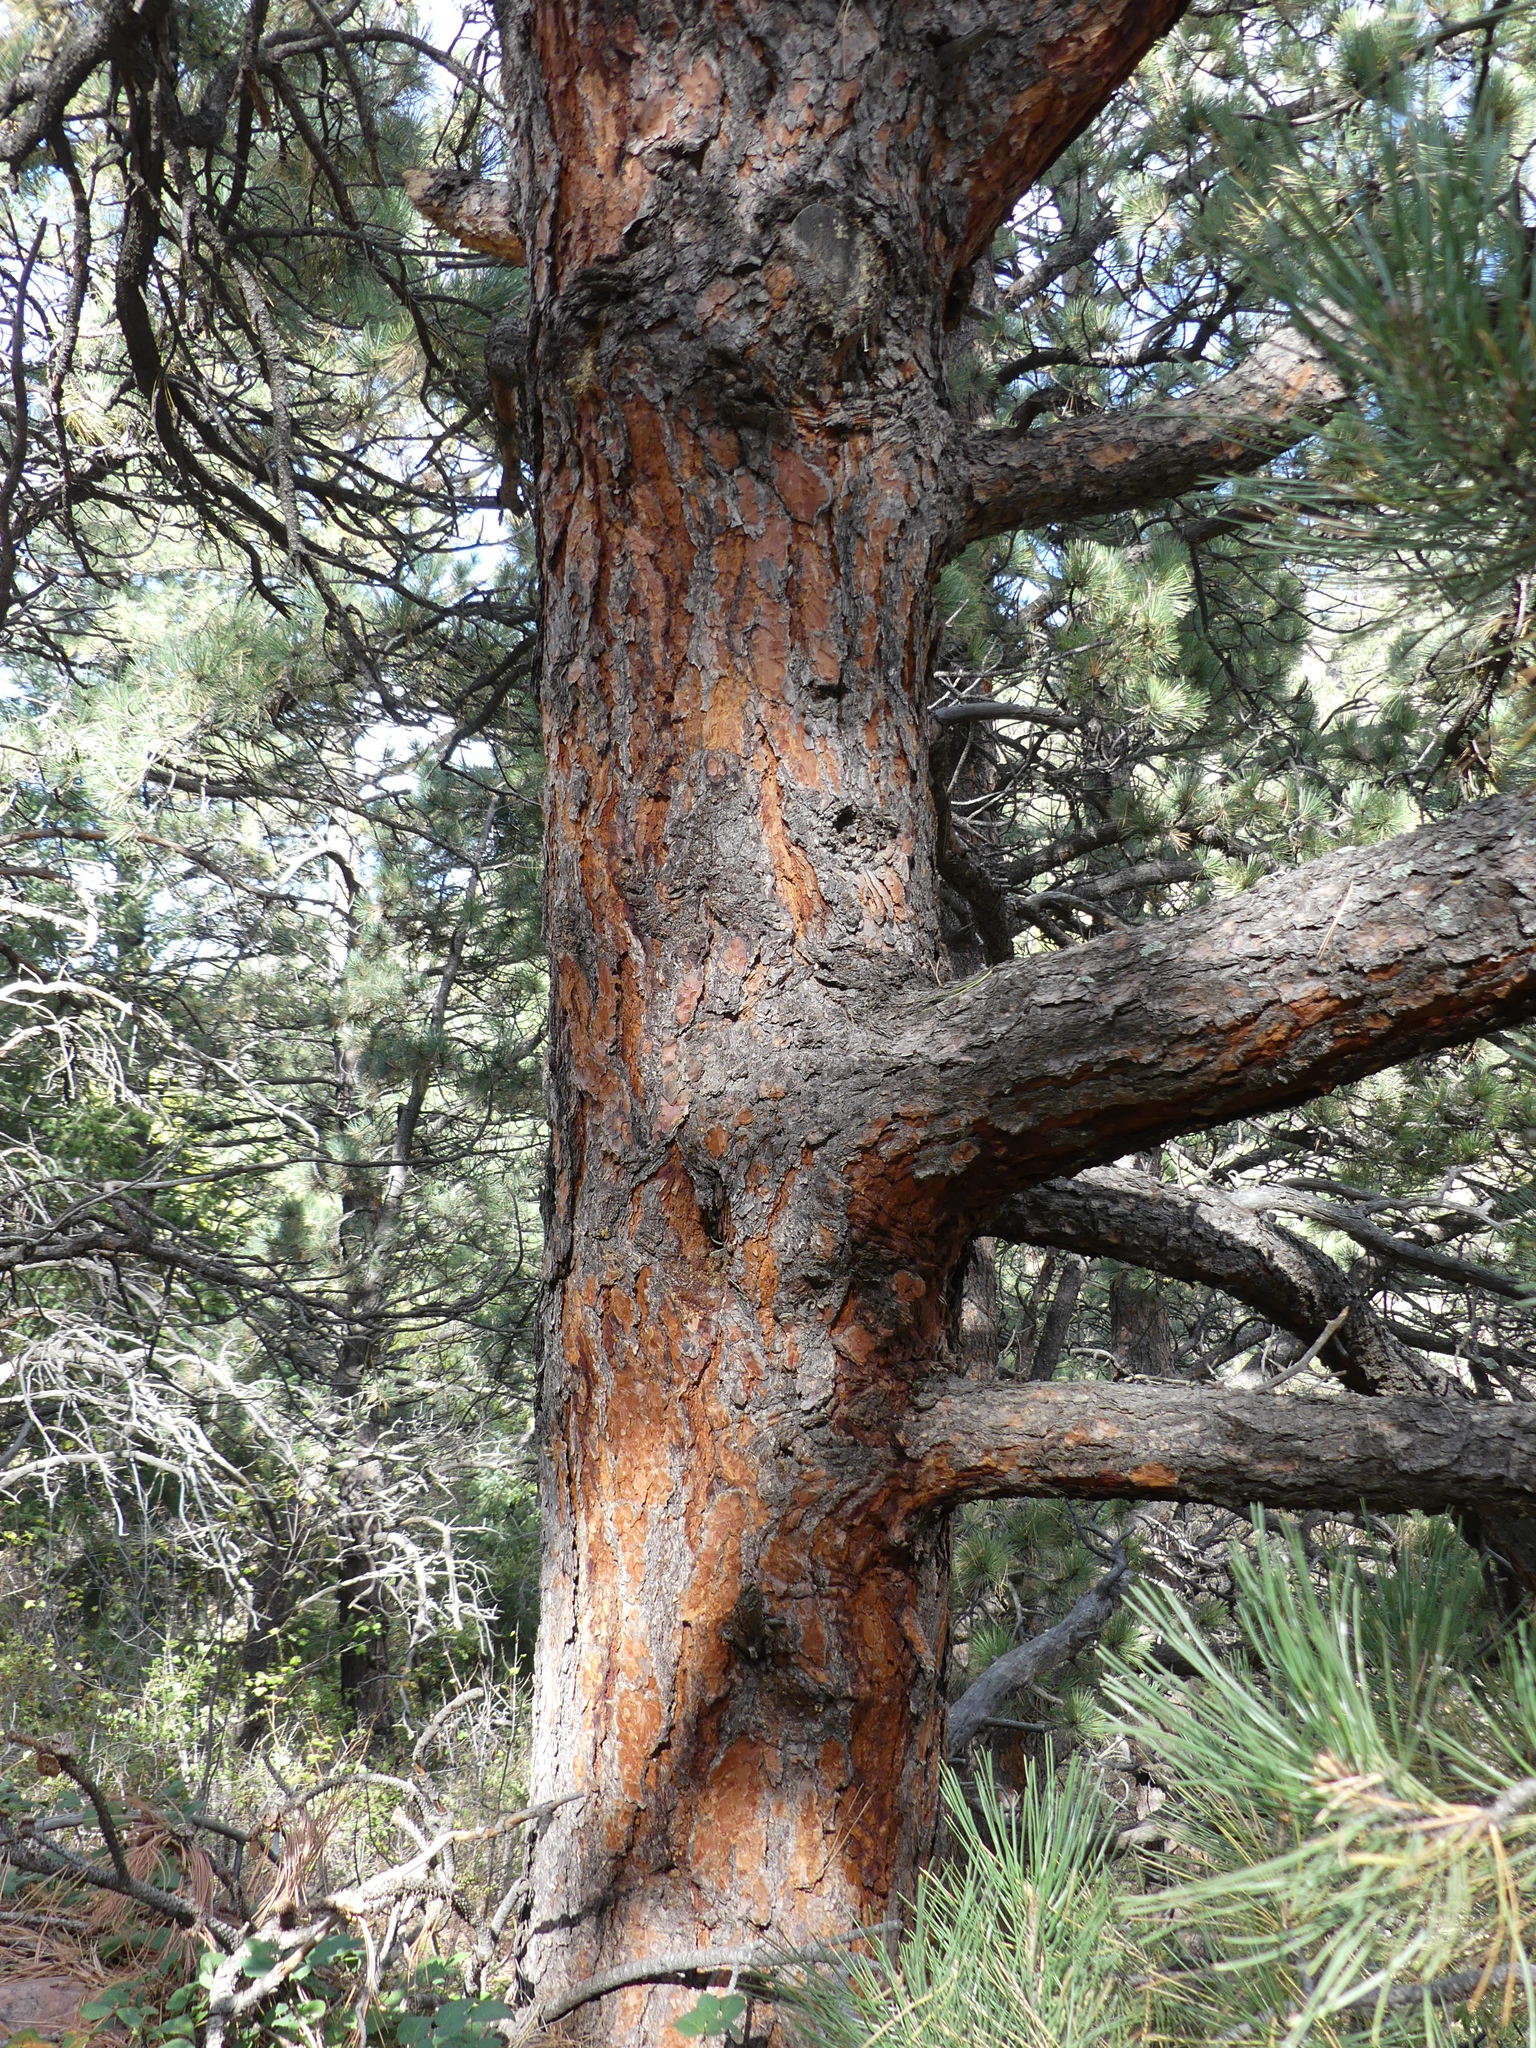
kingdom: Plantae
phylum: Tracheophyta
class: Pinopsida
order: Pinales
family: Pinaceae
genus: Pinus
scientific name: Pinus ponderosa
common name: Western yellow-pine
